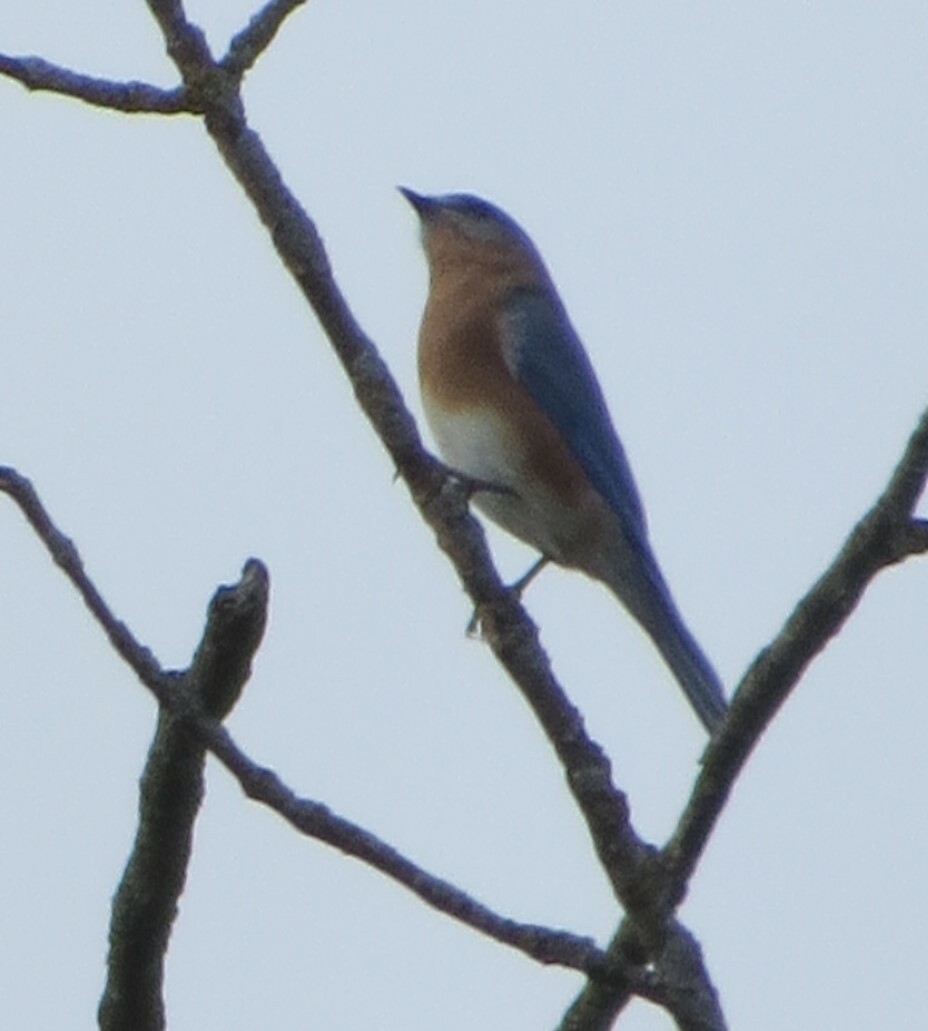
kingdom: Animalia
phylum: Chordata
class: Aves
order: Passeriformes
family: Turdidae
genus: Sialia
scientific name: Sialia sialis
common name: Eastern bluebird
